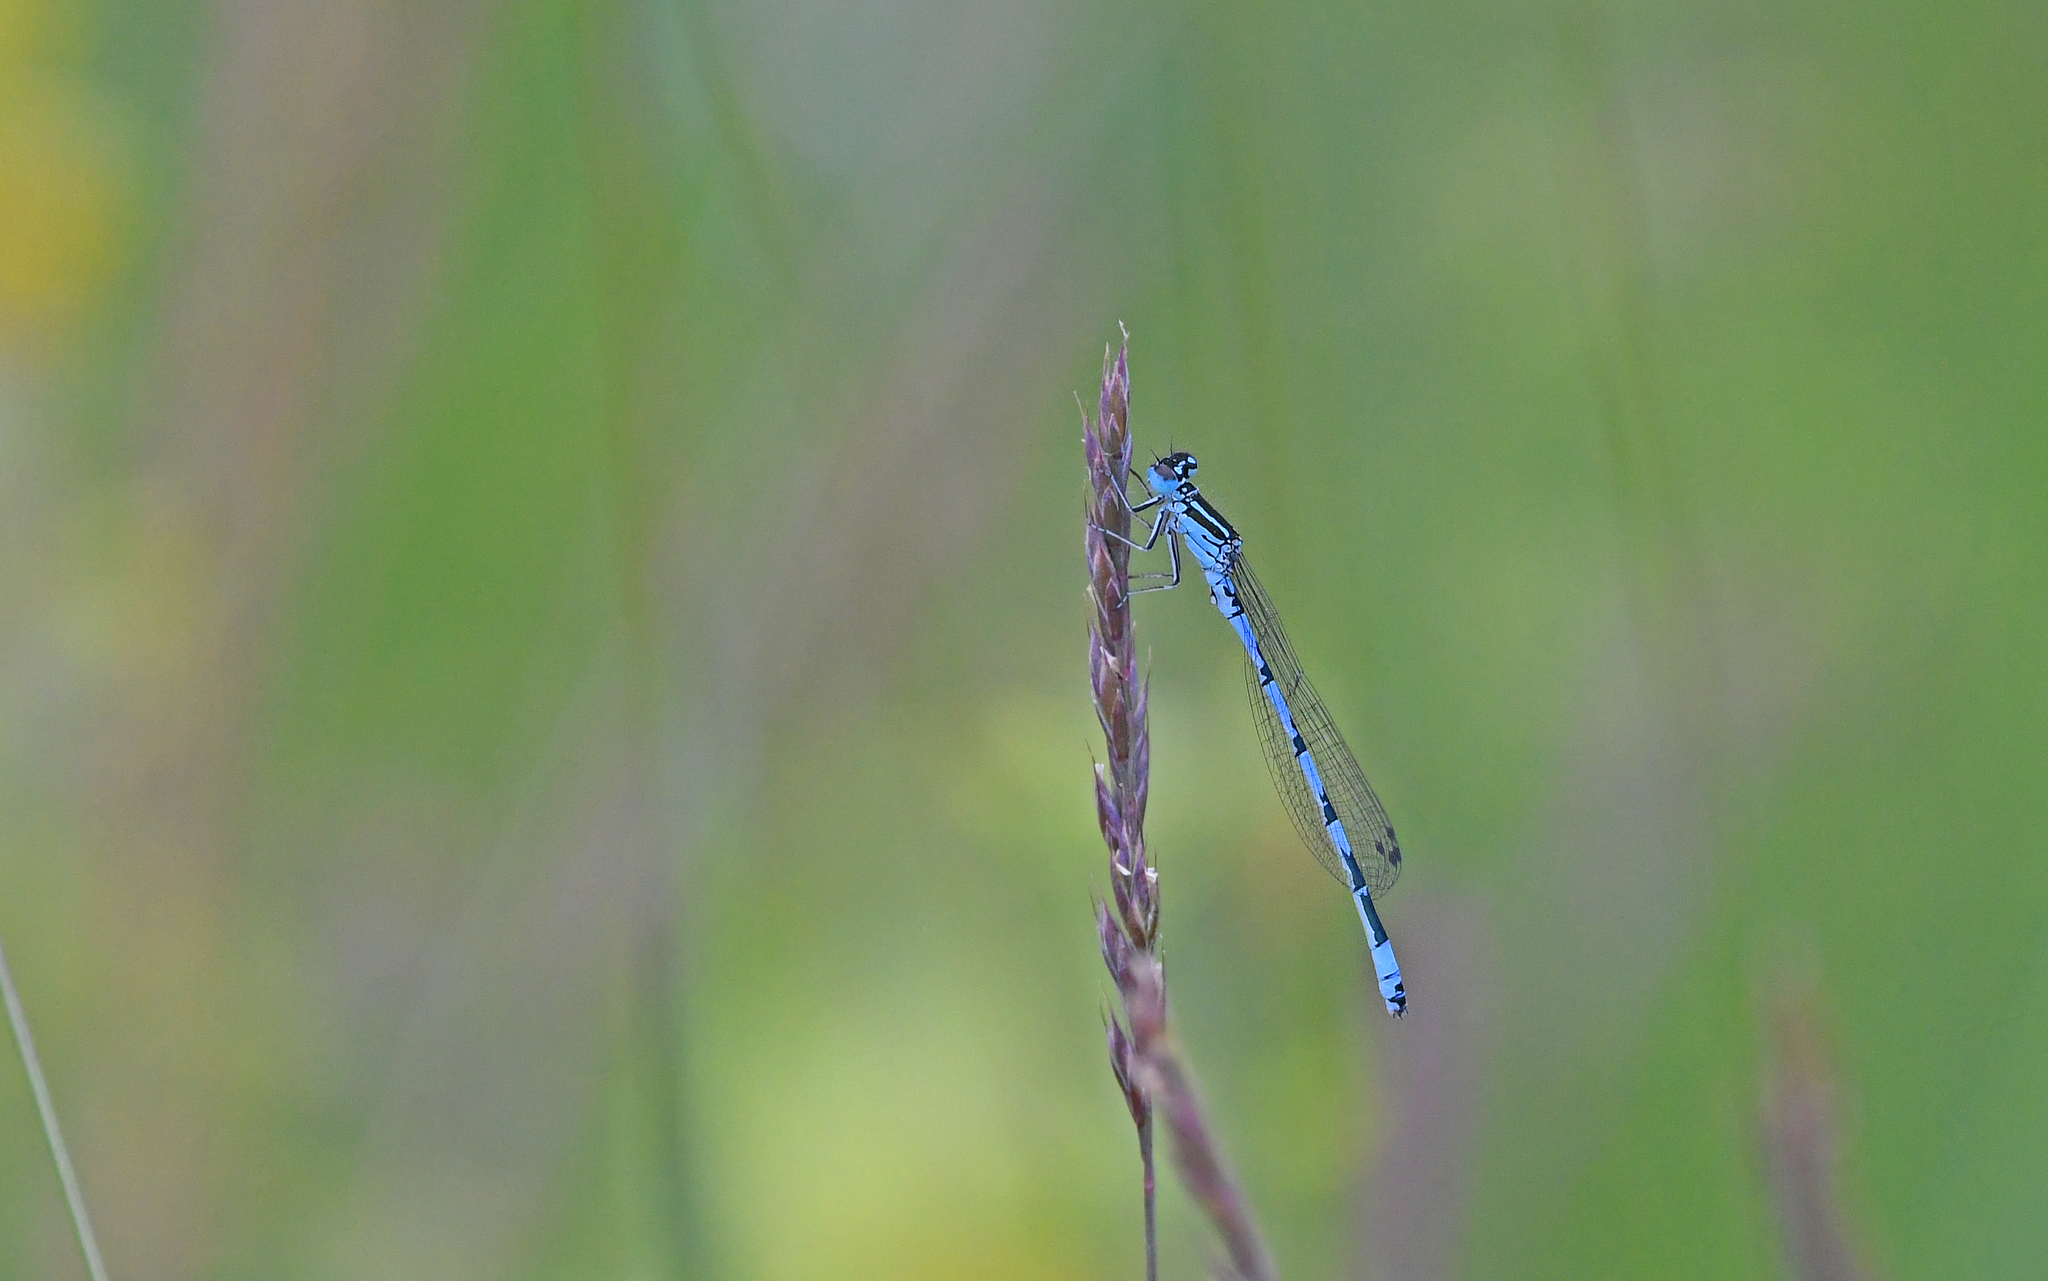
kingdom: Animalia
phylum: Arthropoda
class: Insecta
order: Odonata
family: Coenagrionidae
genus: Coenagrion
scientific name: Coenagrion mercuriale
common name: Southern damselfly
